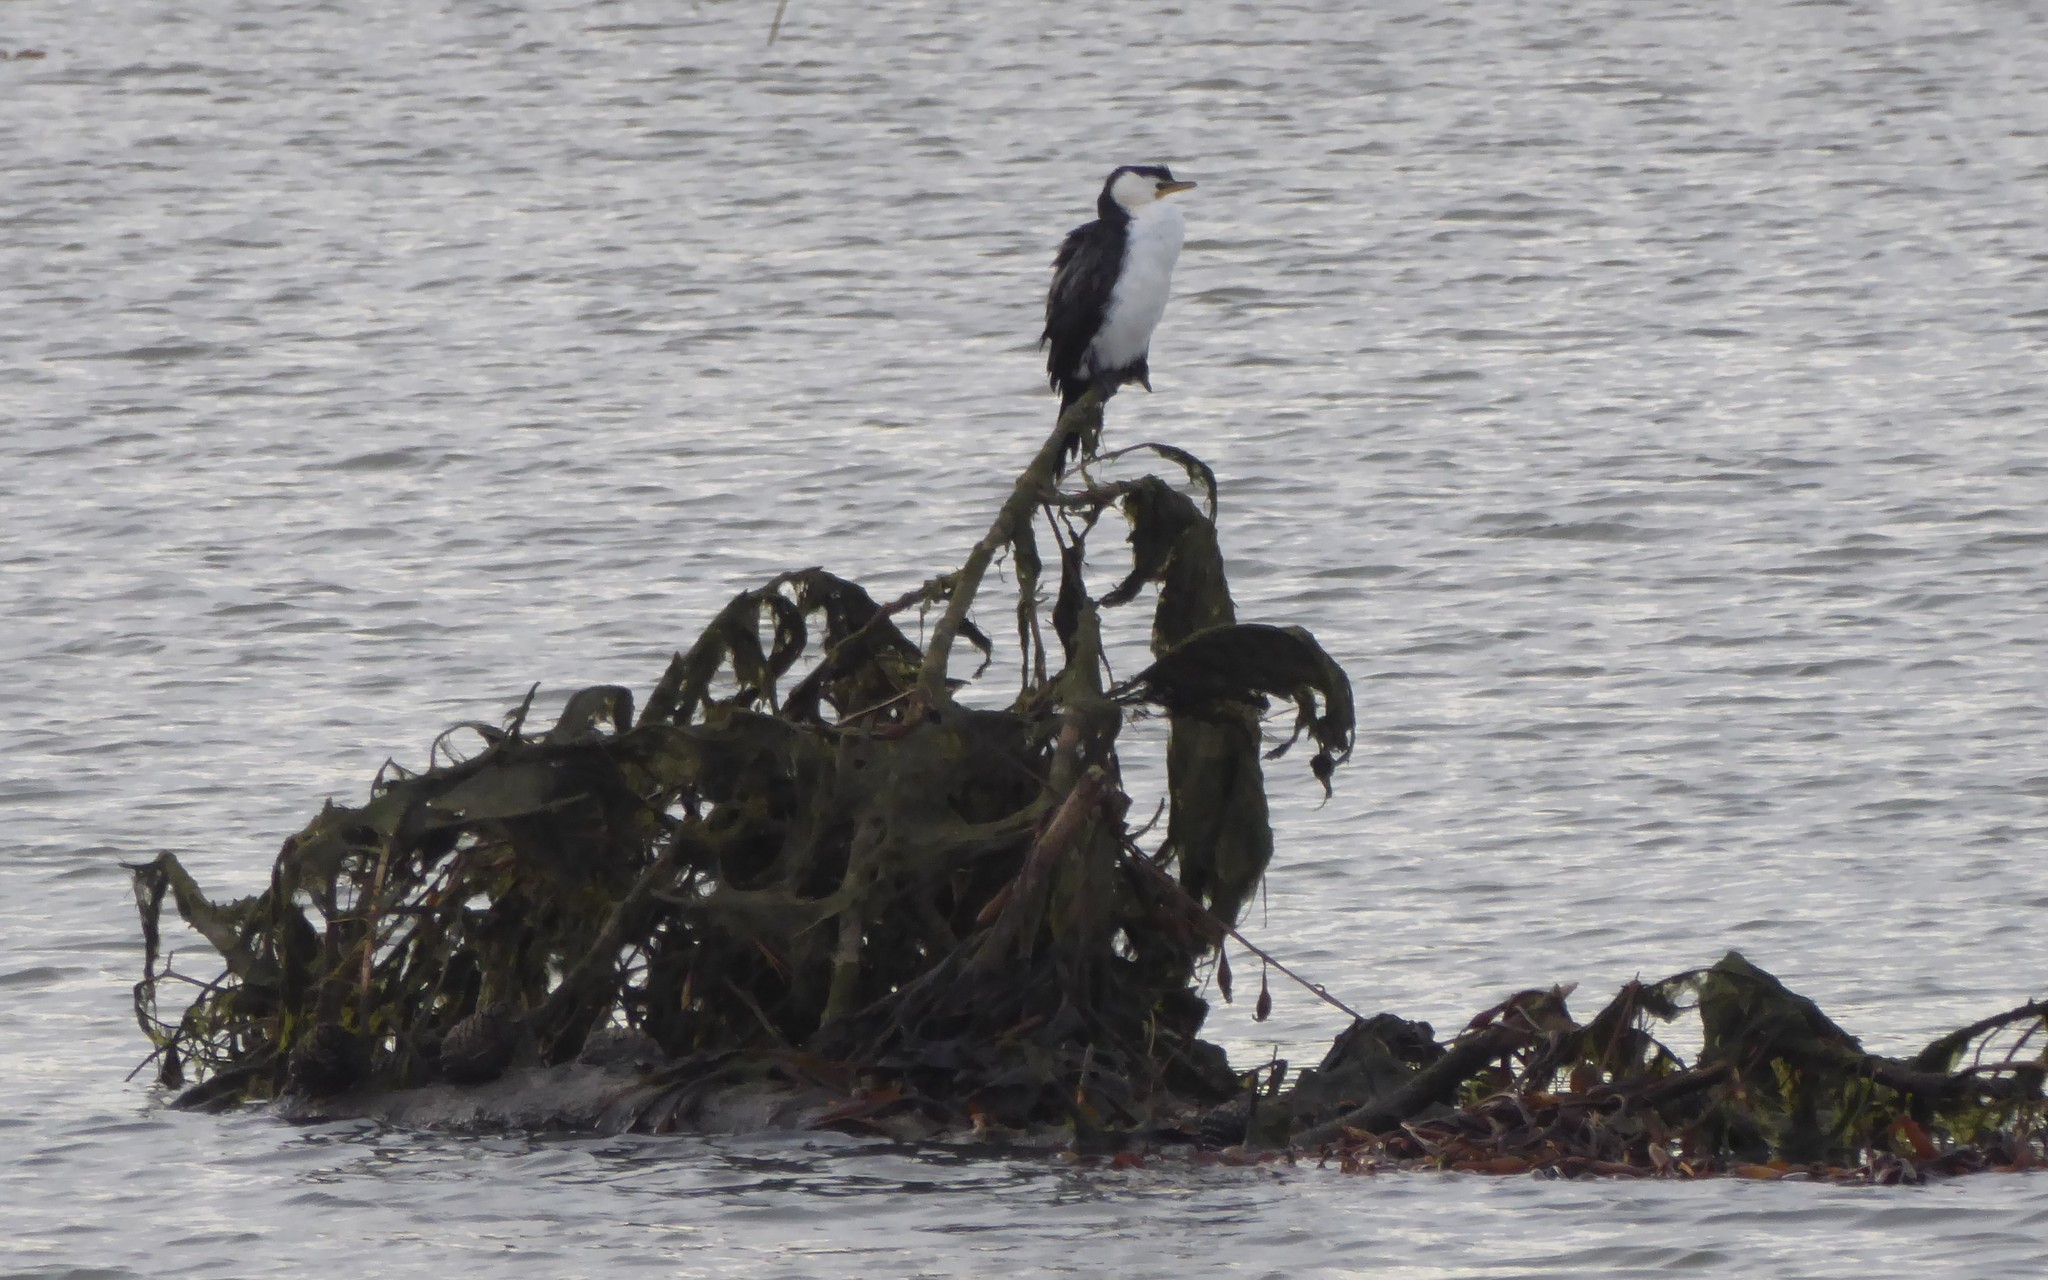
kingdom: Animalia
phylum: Chordata
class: Aves
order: Suliformes
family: Phalacrocoracidae
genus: Microcarbo
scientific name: Microcarbo melanoleucos
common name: Little pied cormorant
